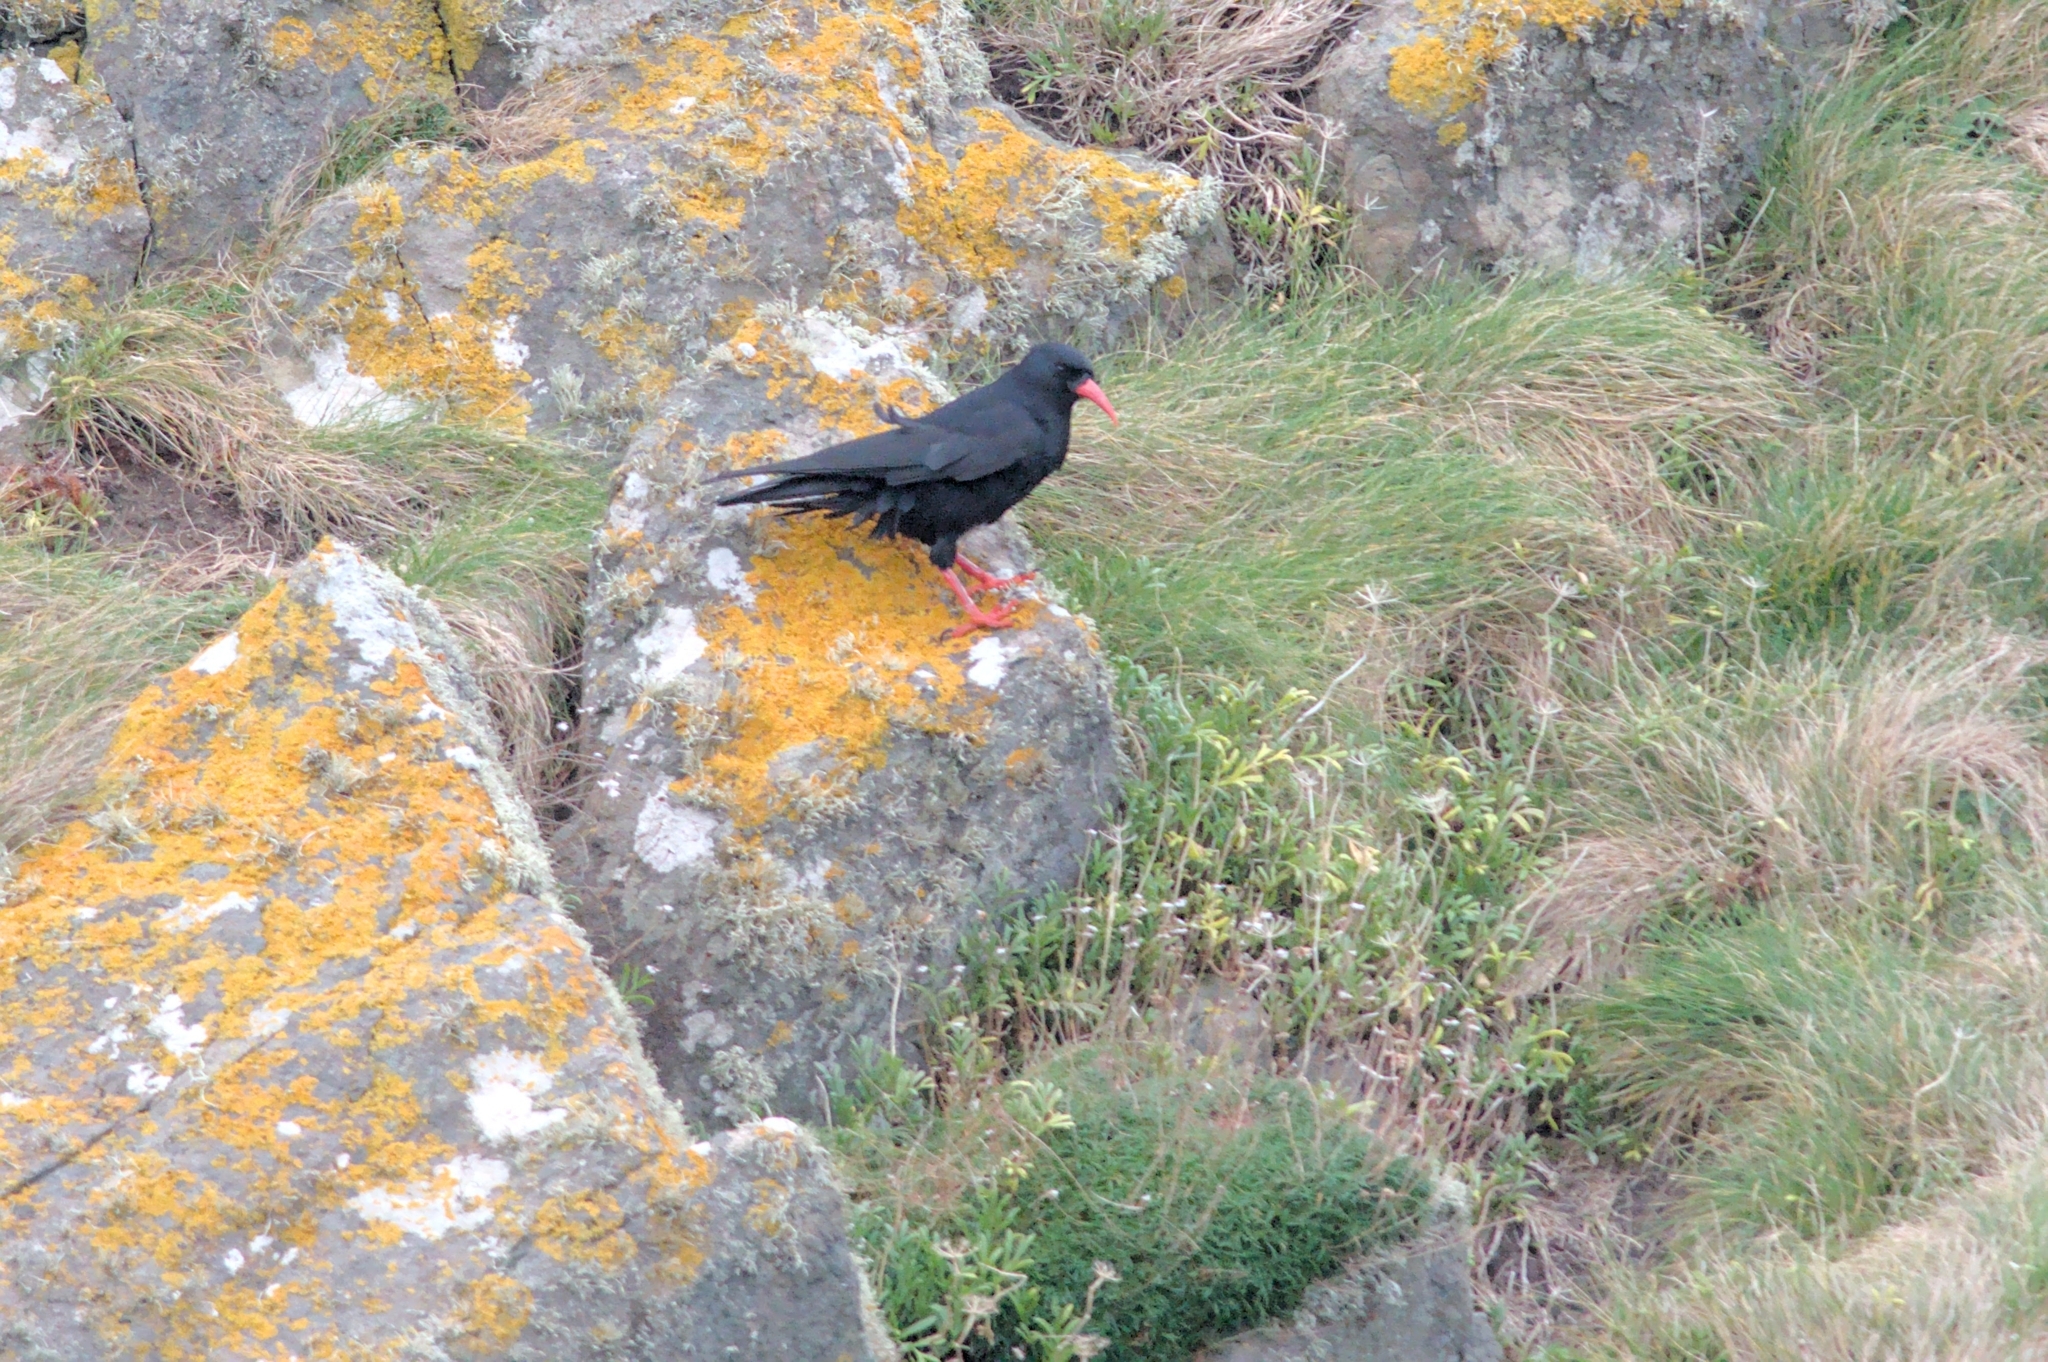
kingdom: Animalia
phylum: Chordata
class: Aves
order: Passeriformes
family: Corvidae
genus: Pyrrhocorax
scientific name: Pyrrhocorax pyrrhocorax
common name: Red-billed chough
